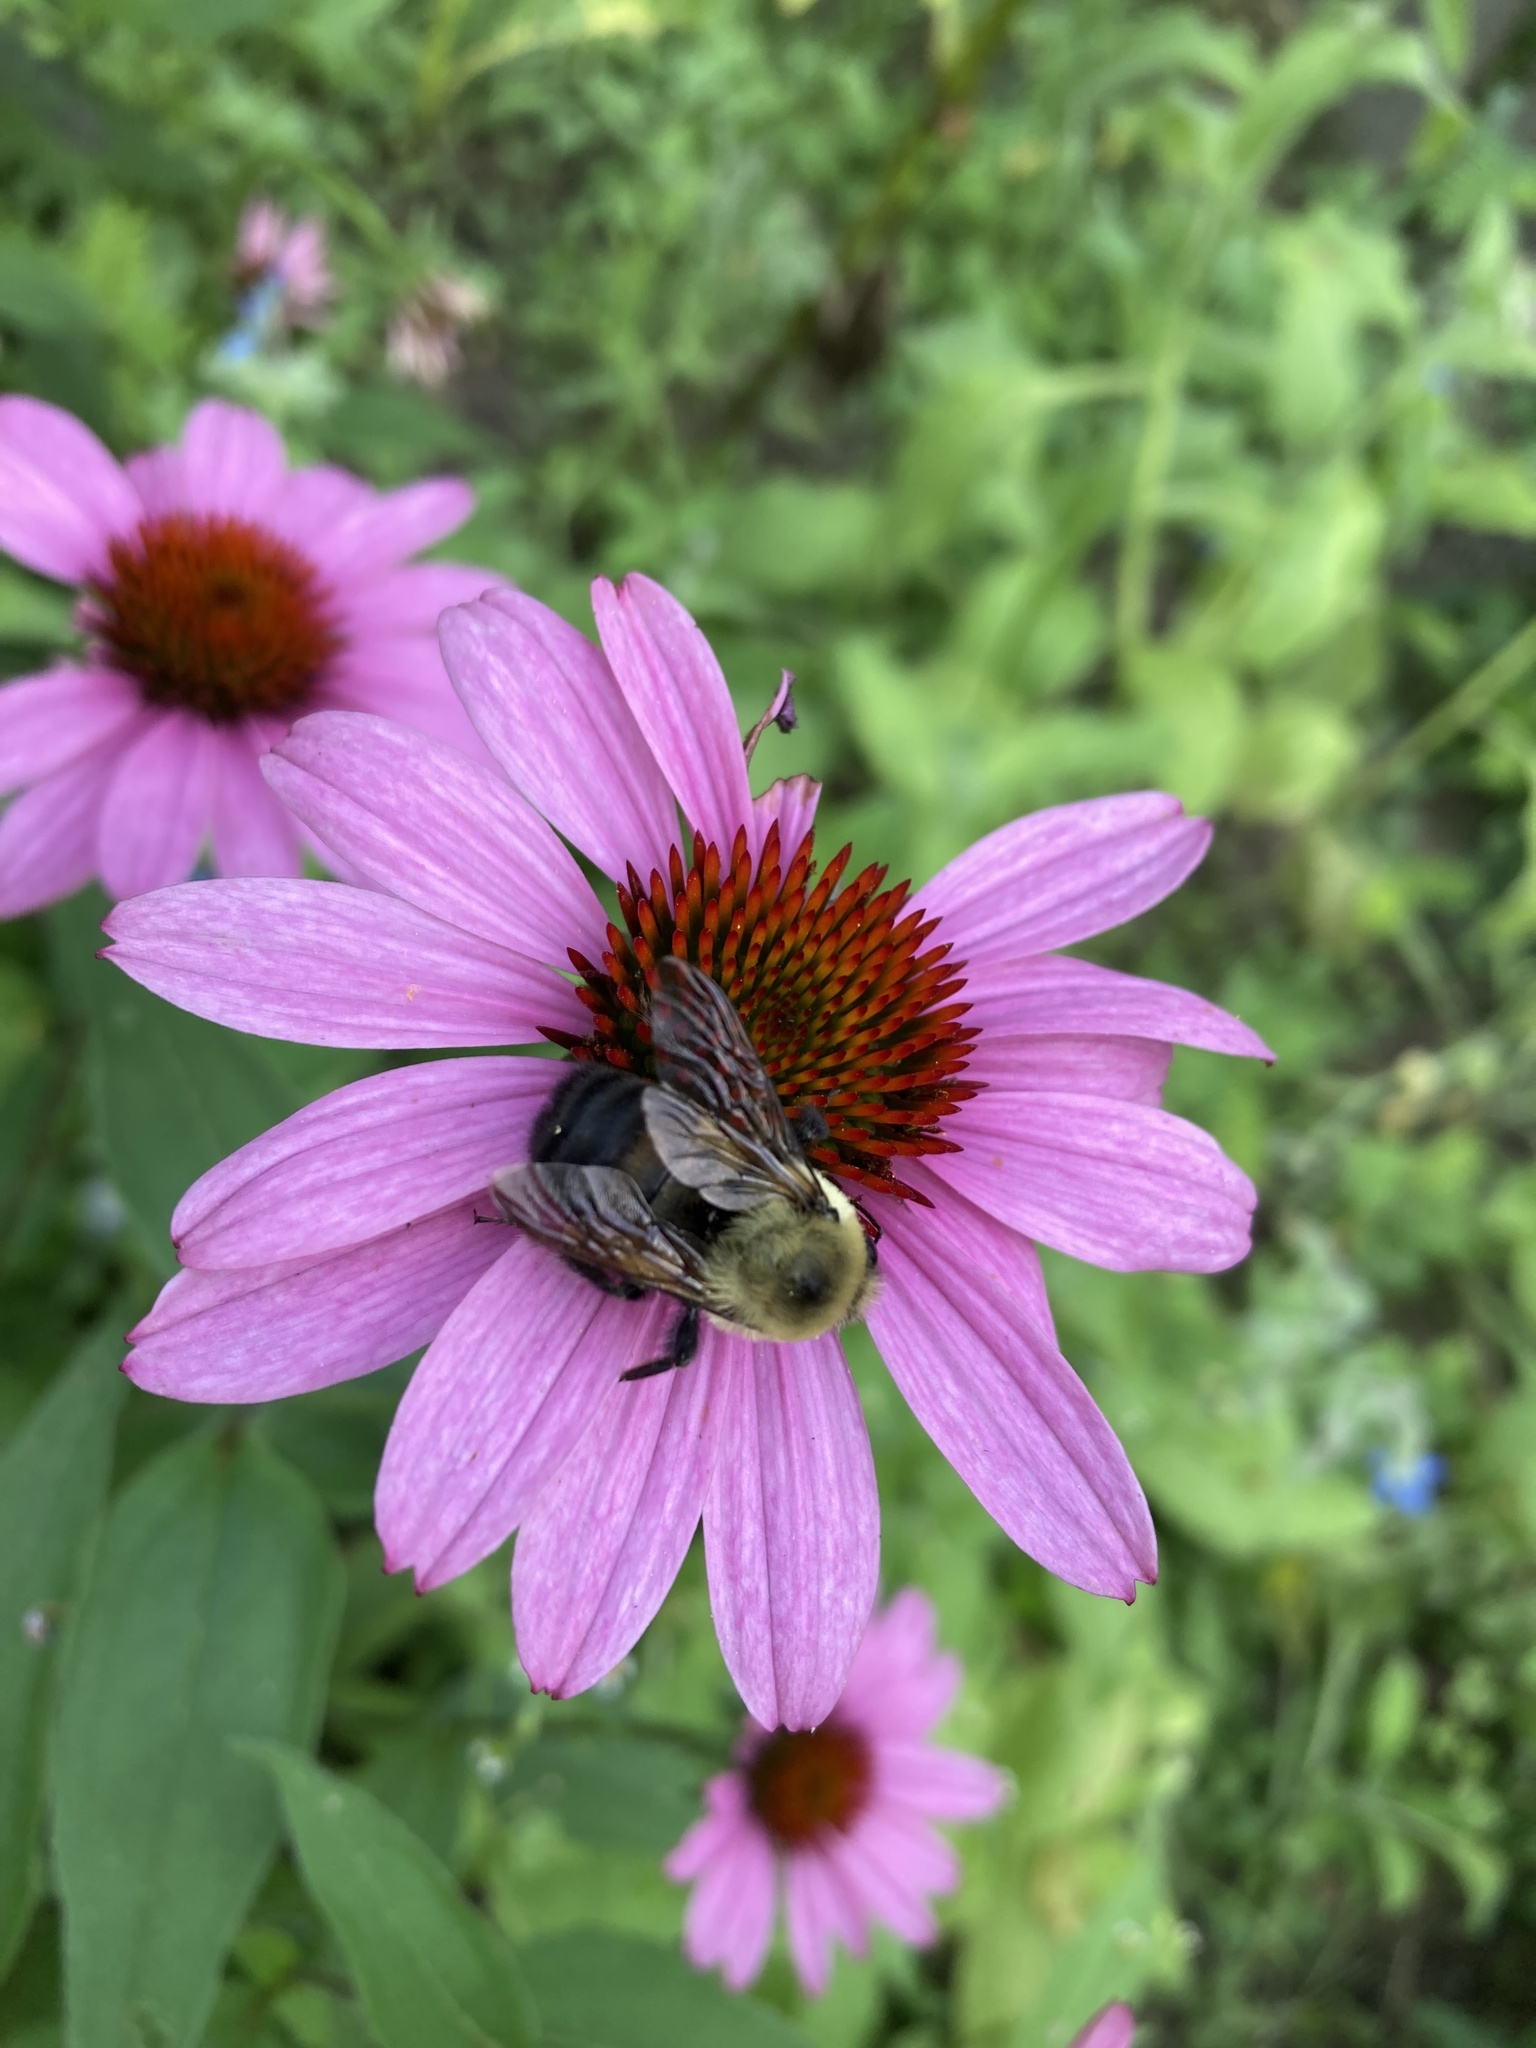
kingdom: Animalia
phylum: Arthropoda
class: Insecta
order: Hymenoptera
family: Apidae
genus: Bombus
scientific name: Bombus griseocollis
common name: Brown-belted bumble bee
